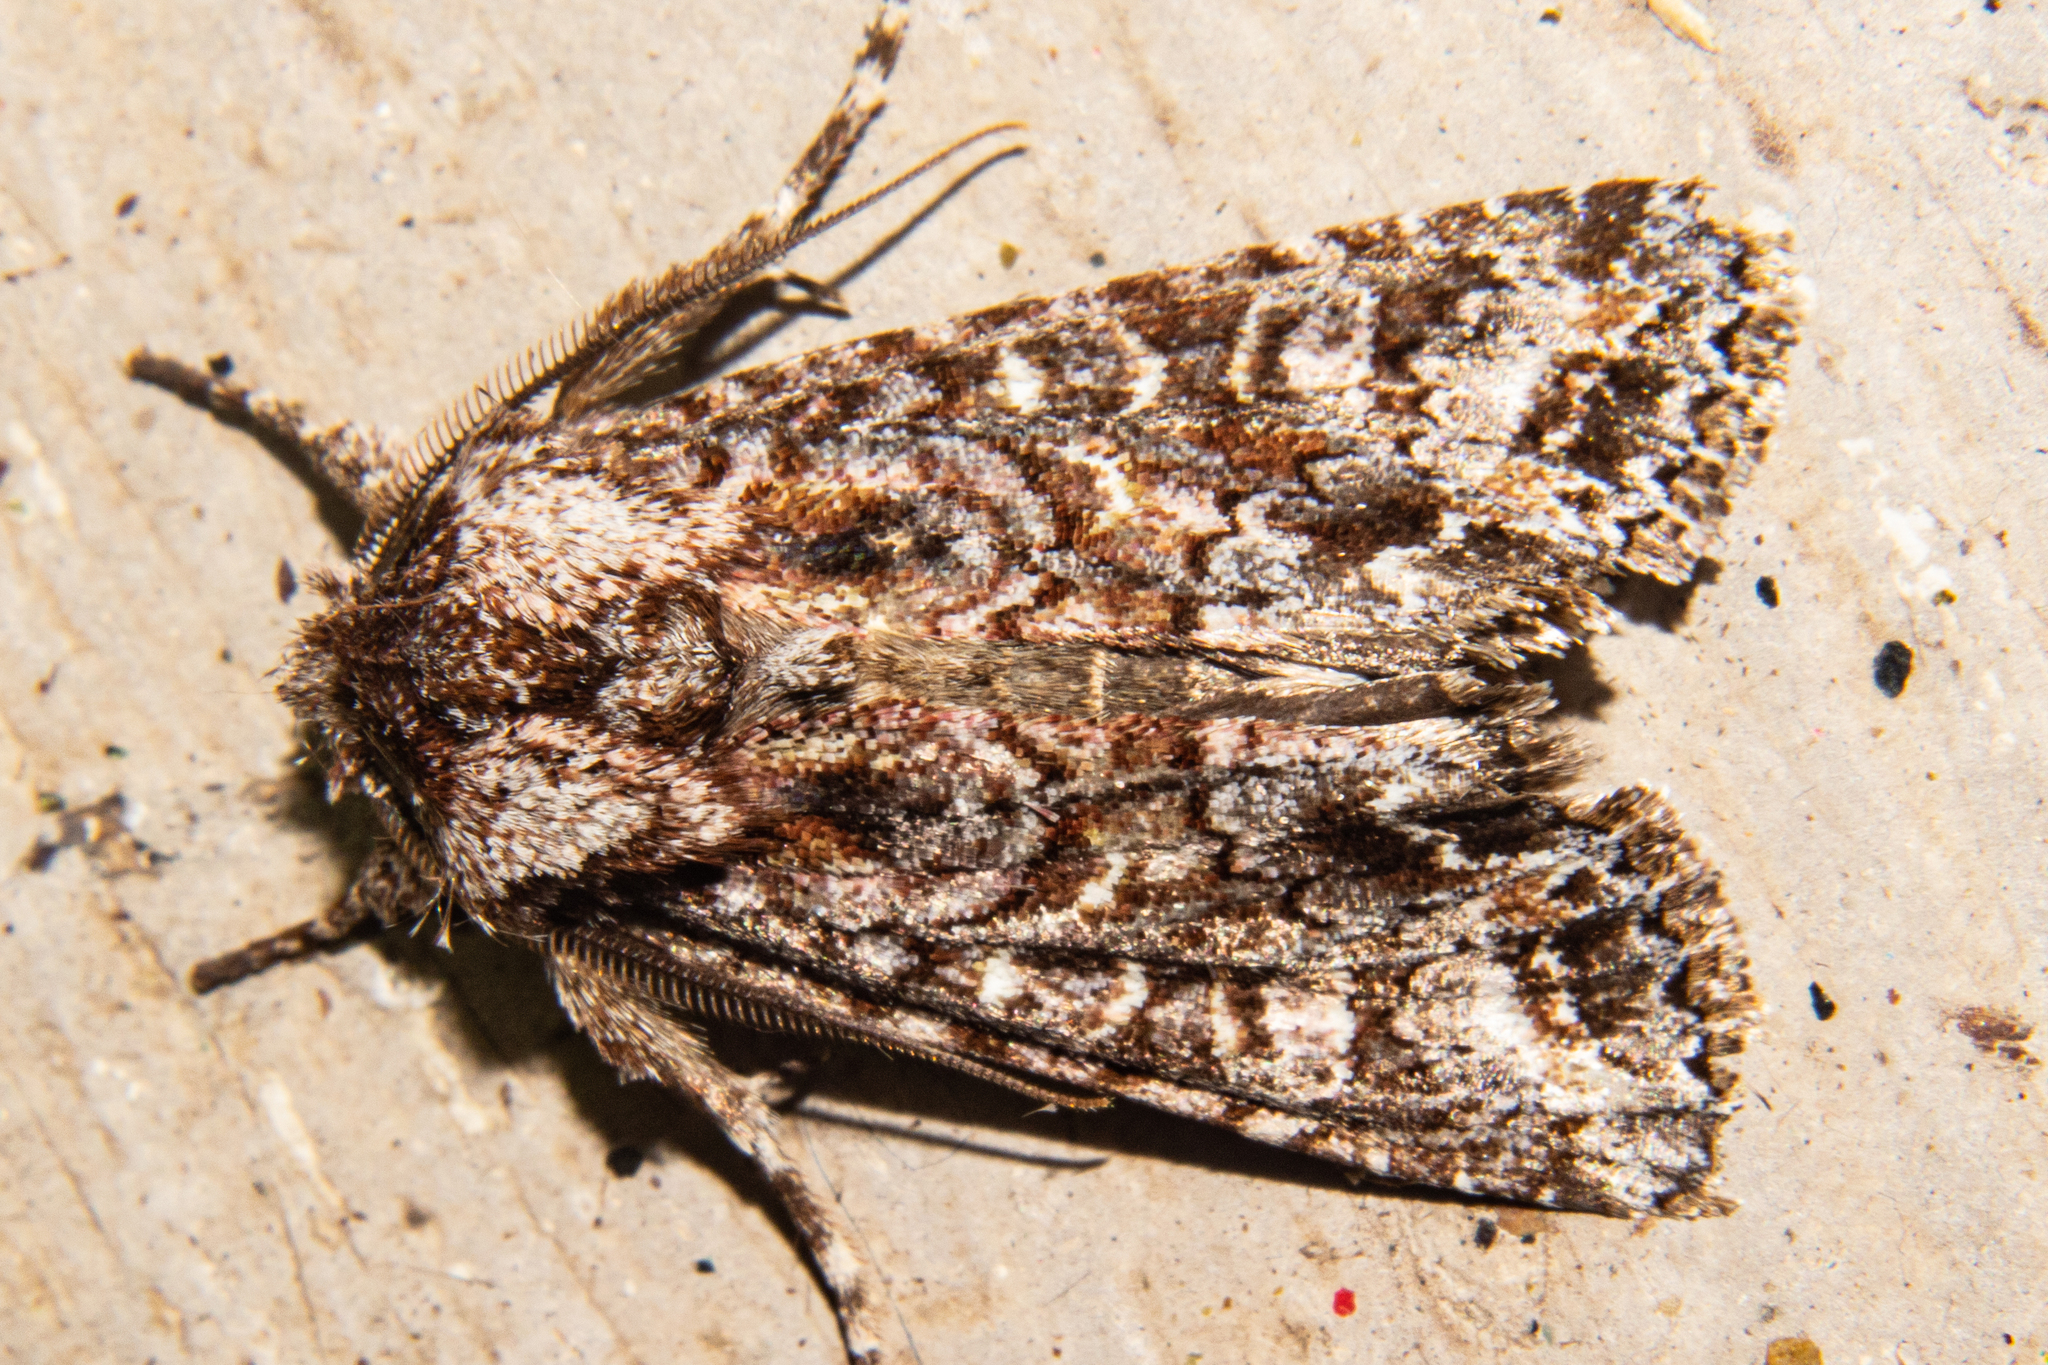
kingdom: Animalia
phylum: Arthropoda
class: Insecta
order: Lepidoptera
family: Noctuidae
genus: Ichneutica
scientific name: Ichneutica pelanodes
